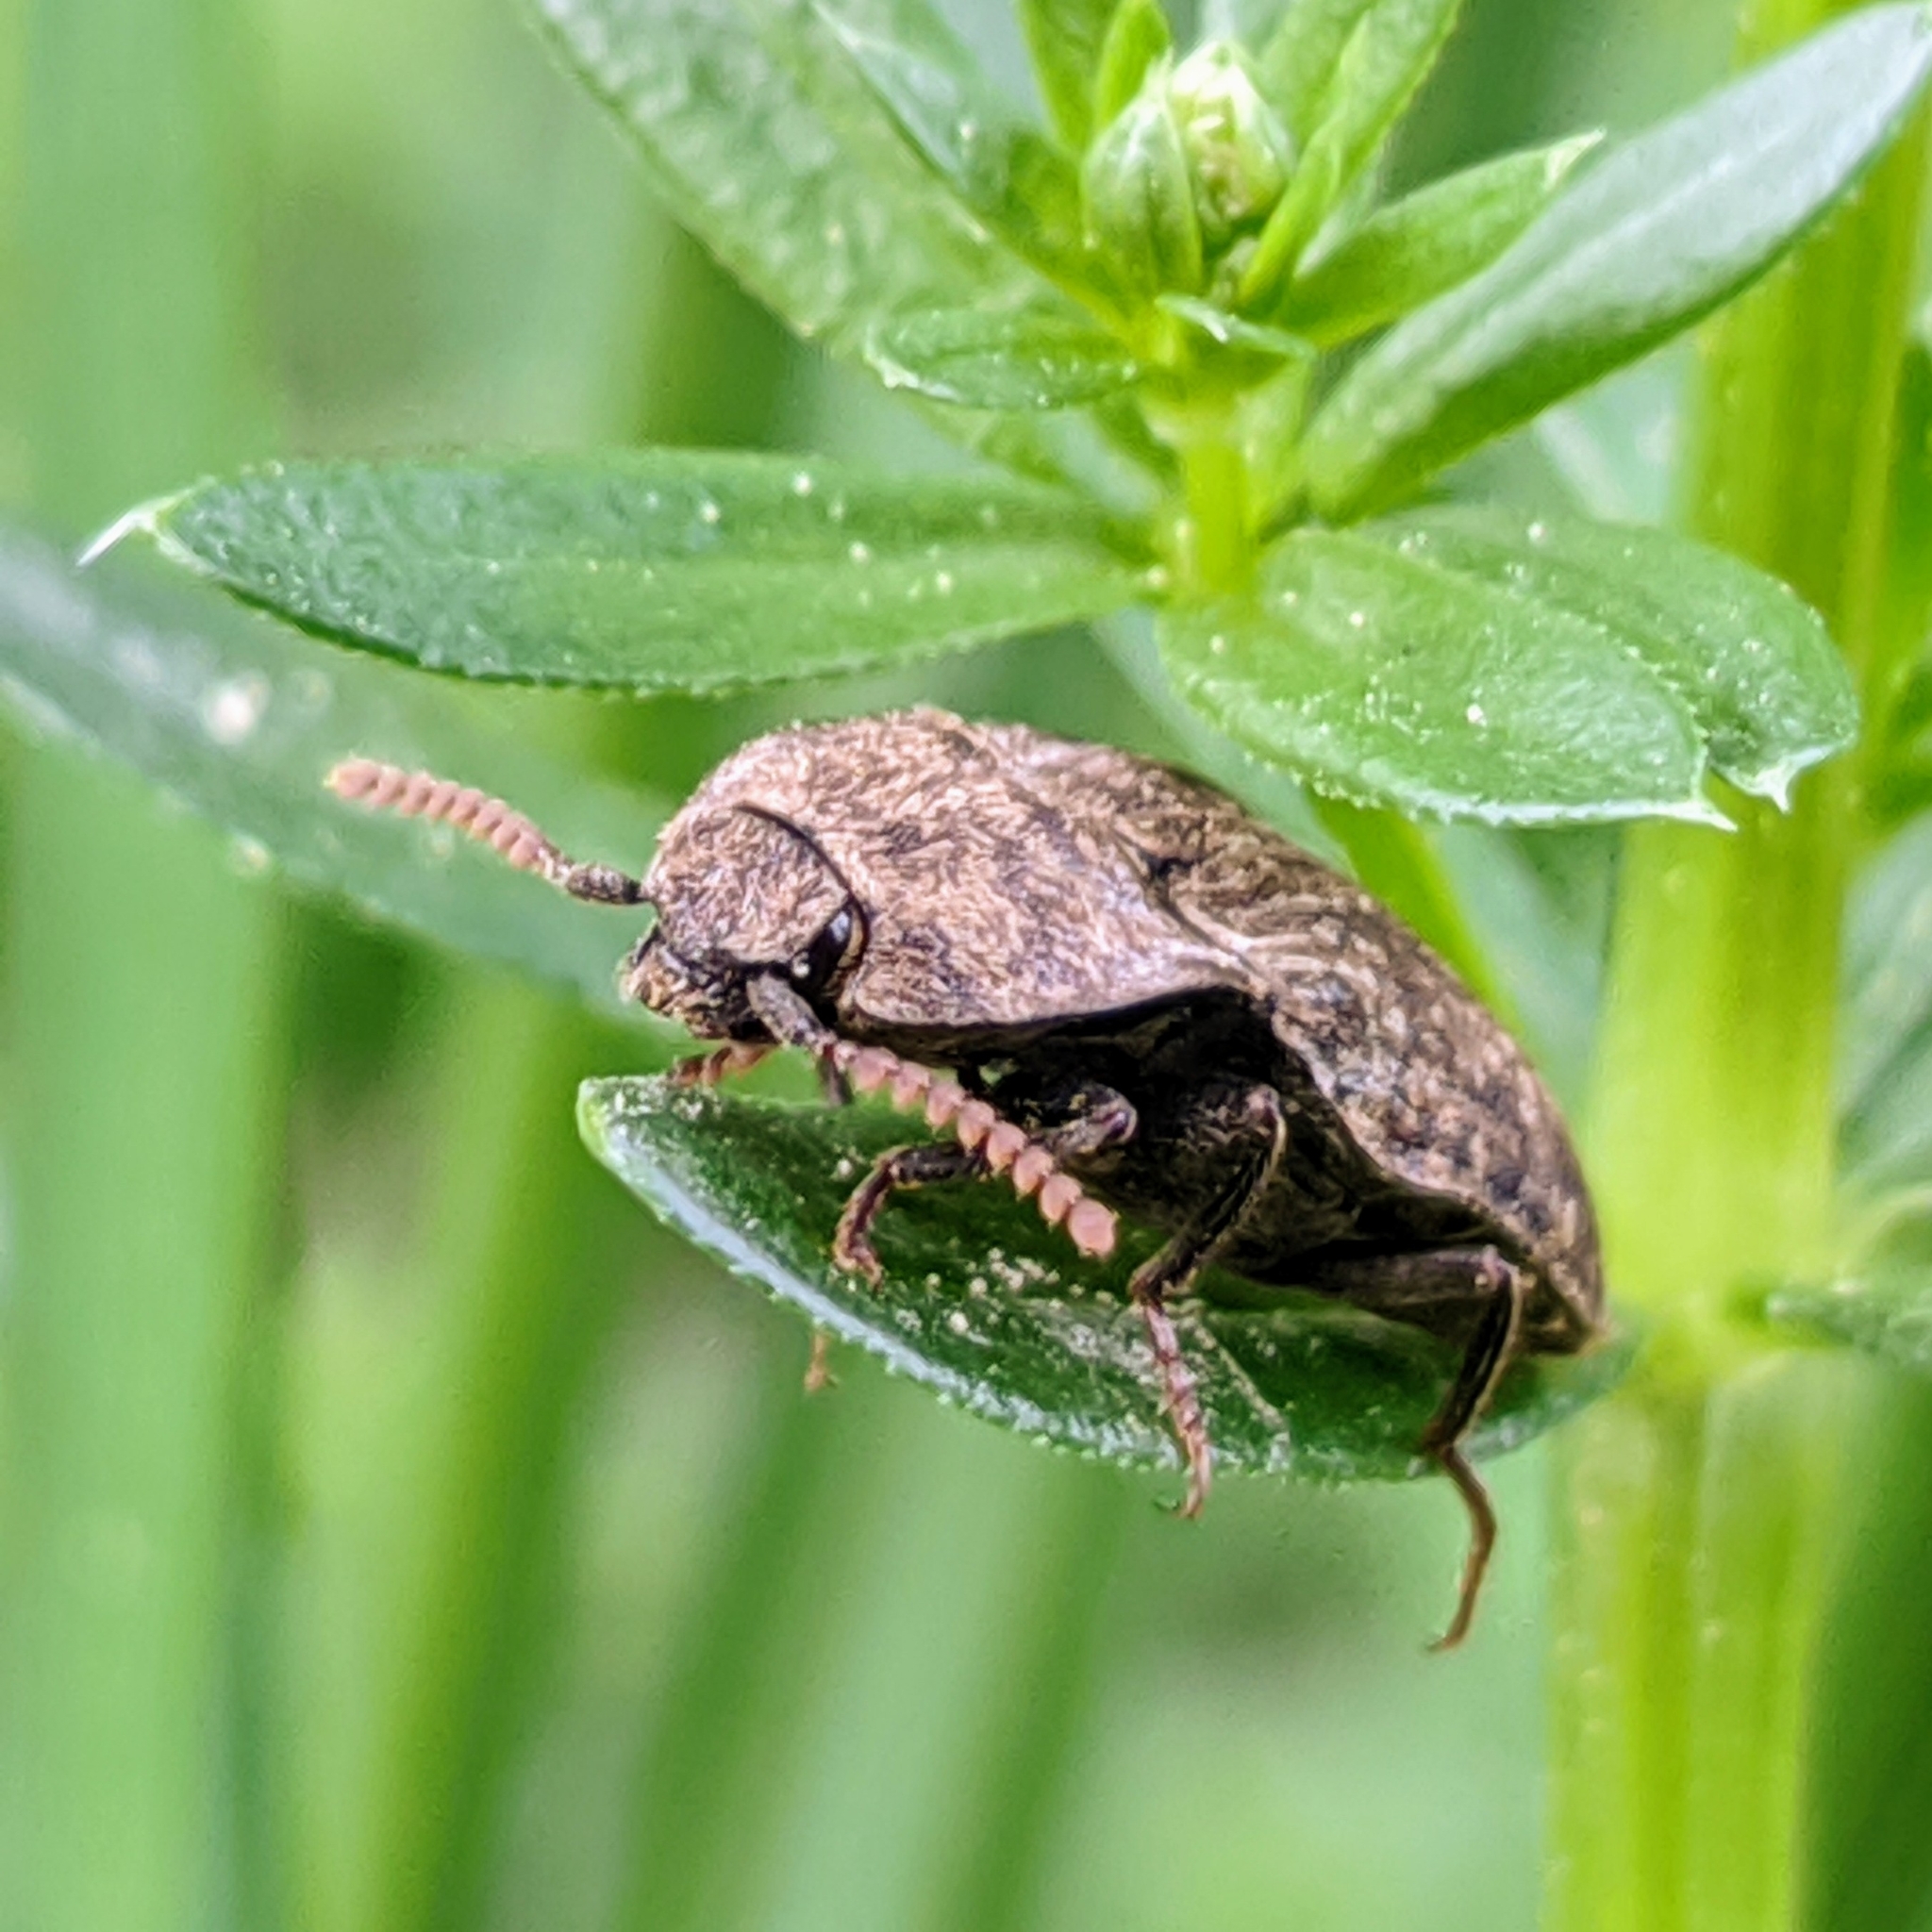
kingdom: Animalia
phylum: Arthropoda
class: Insecta
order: Coleoptera
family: Elateridae
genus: Agrypnus
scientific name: Agrypnus murinus
